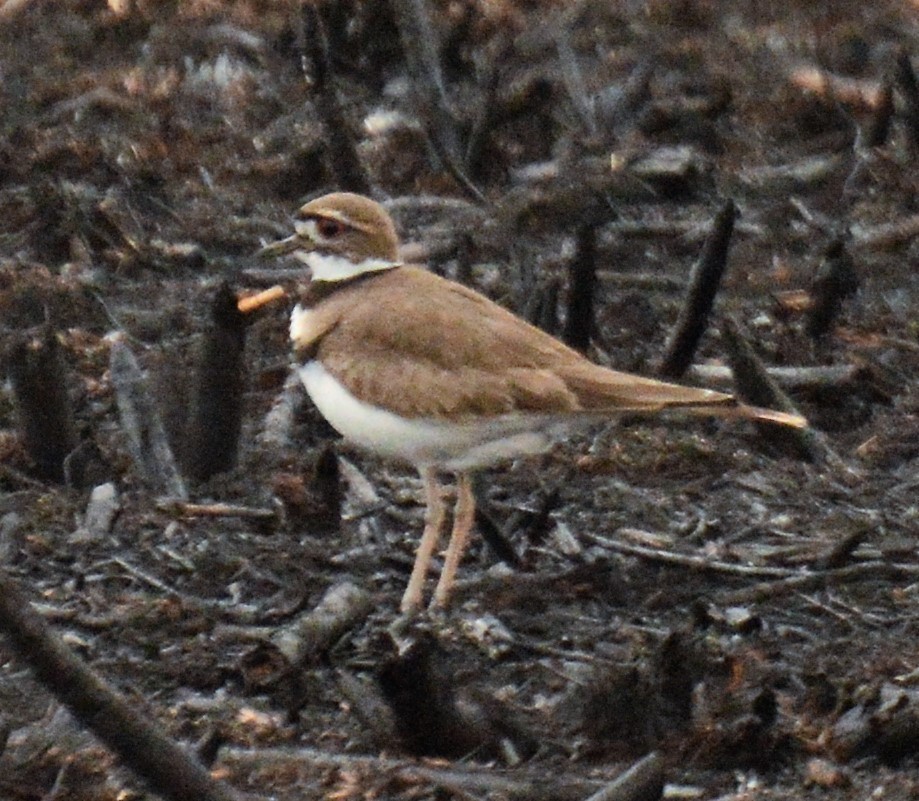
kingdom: Animalia
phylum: Chordata
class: Aves
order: Charadriiformes
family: Charadriidae
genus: Charadrius
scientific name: Charadrius vociferus
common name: Killdeer
